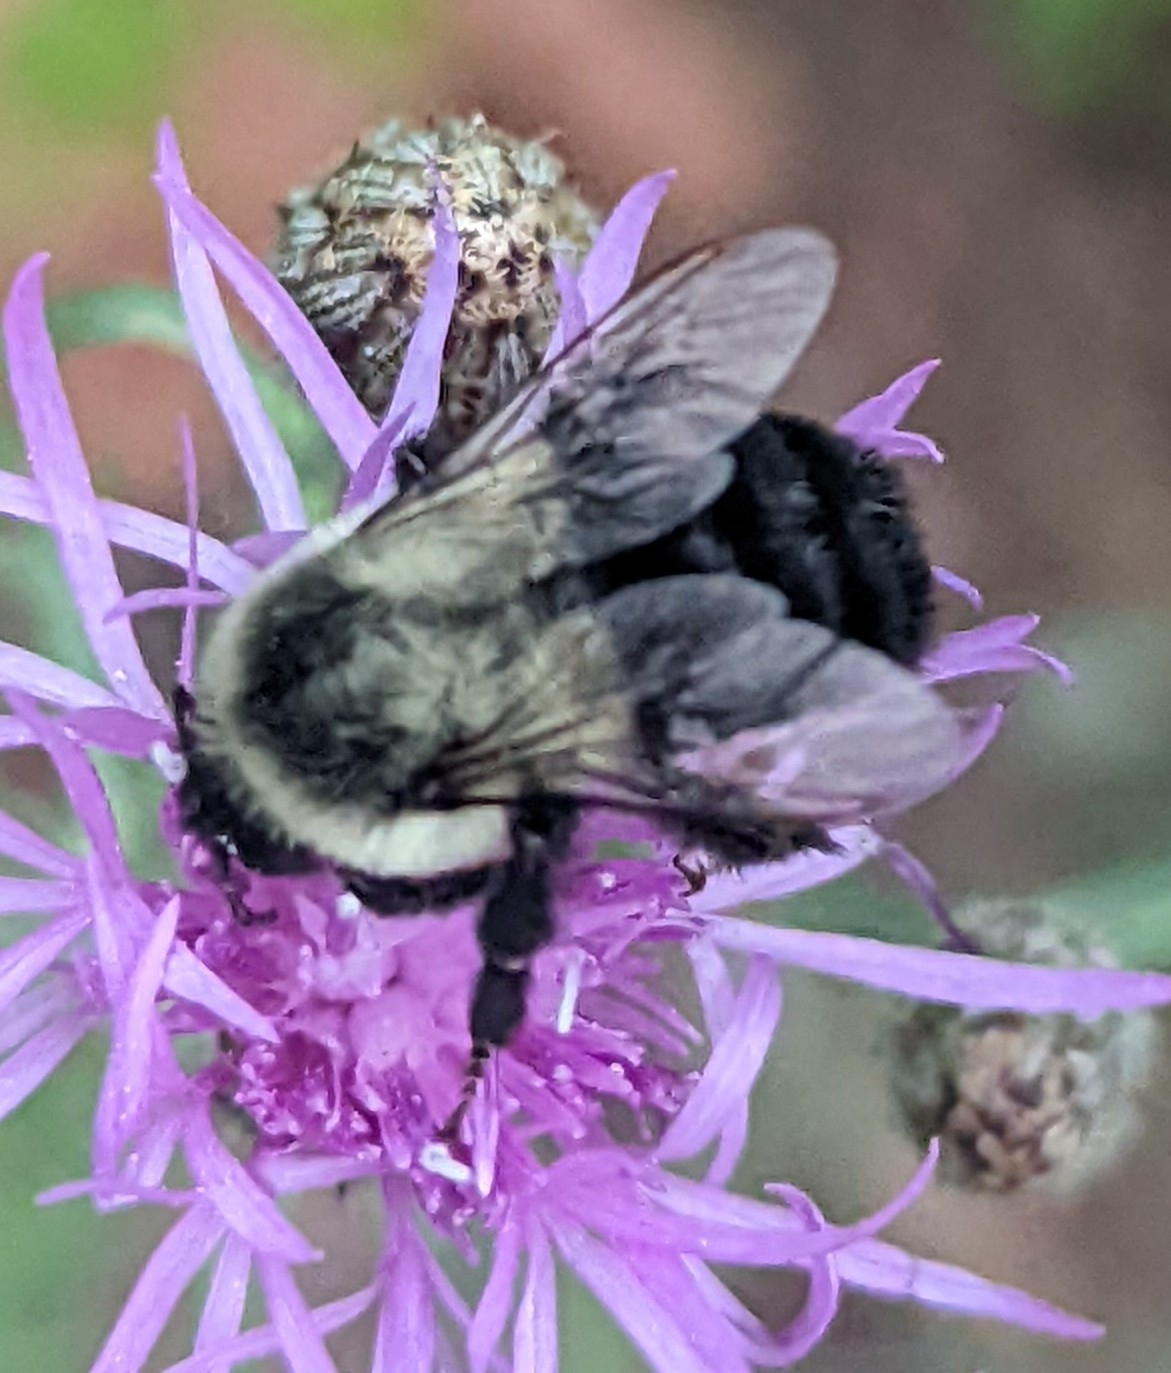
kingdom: Animalia
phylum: Arthropoda
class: Insecta
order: Hymenoptera
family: Apidae
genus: Bombus
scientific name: Bombus impatiens
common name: Common eastern bumble bee
